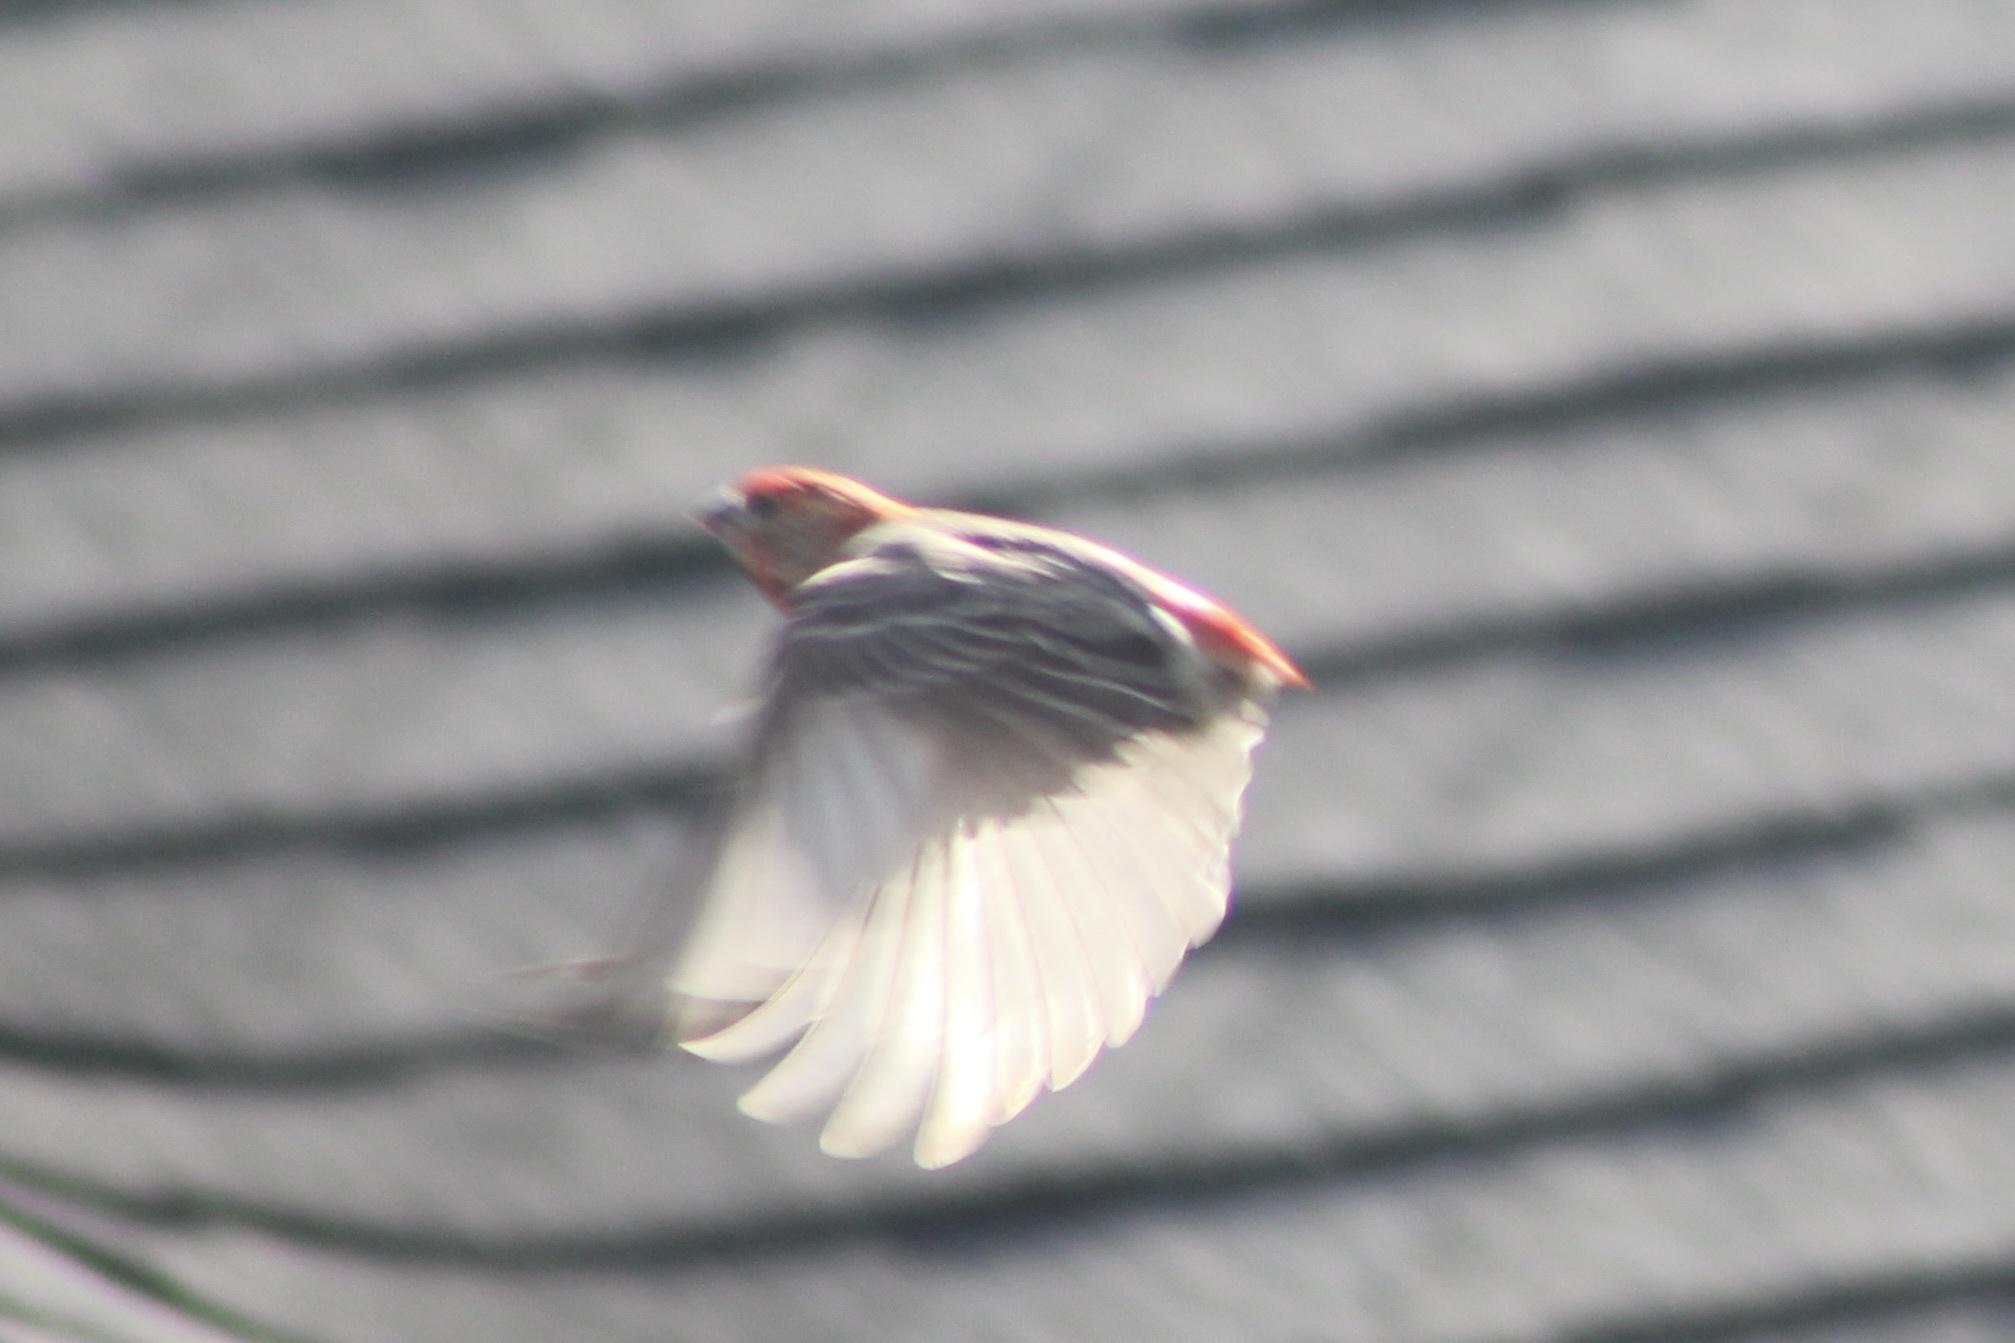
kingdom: Animalia
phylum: Chordata
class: Aves
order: Passeriformes
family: Fringillidae
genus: Haemorhous
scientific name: Haemorhous mexicanus
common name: House finch
